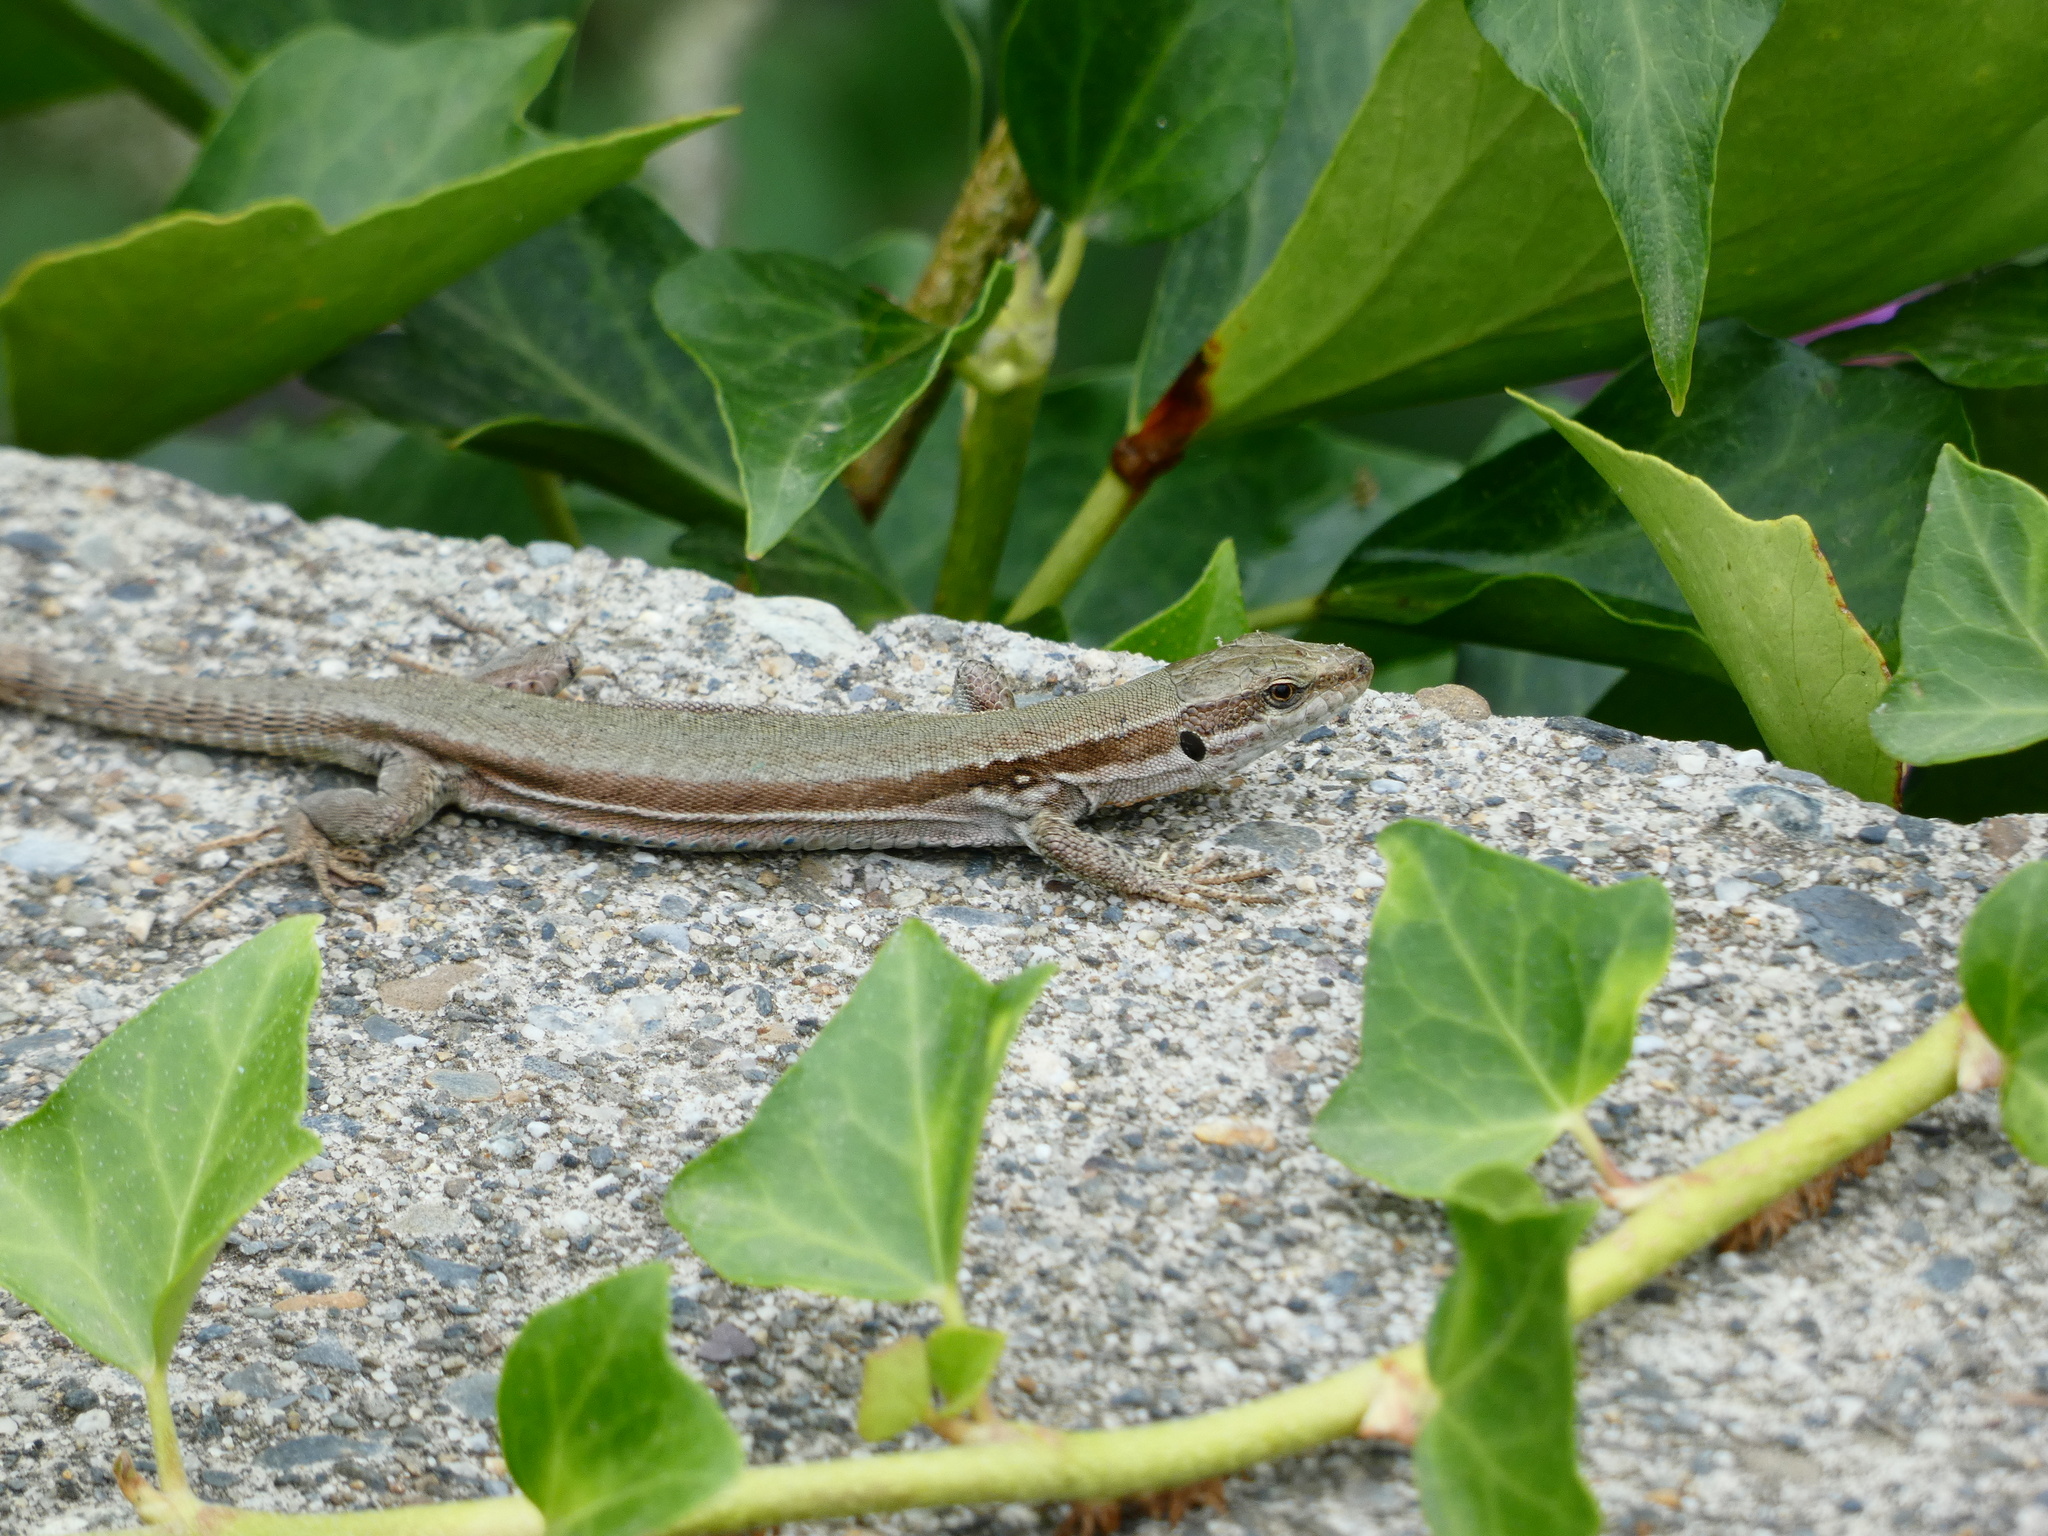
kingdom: Animalia
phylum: Chordata
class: Squamata
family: Lacertidae
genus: Podarcis
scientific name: Podarcis muralis
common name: Common wall lizard
